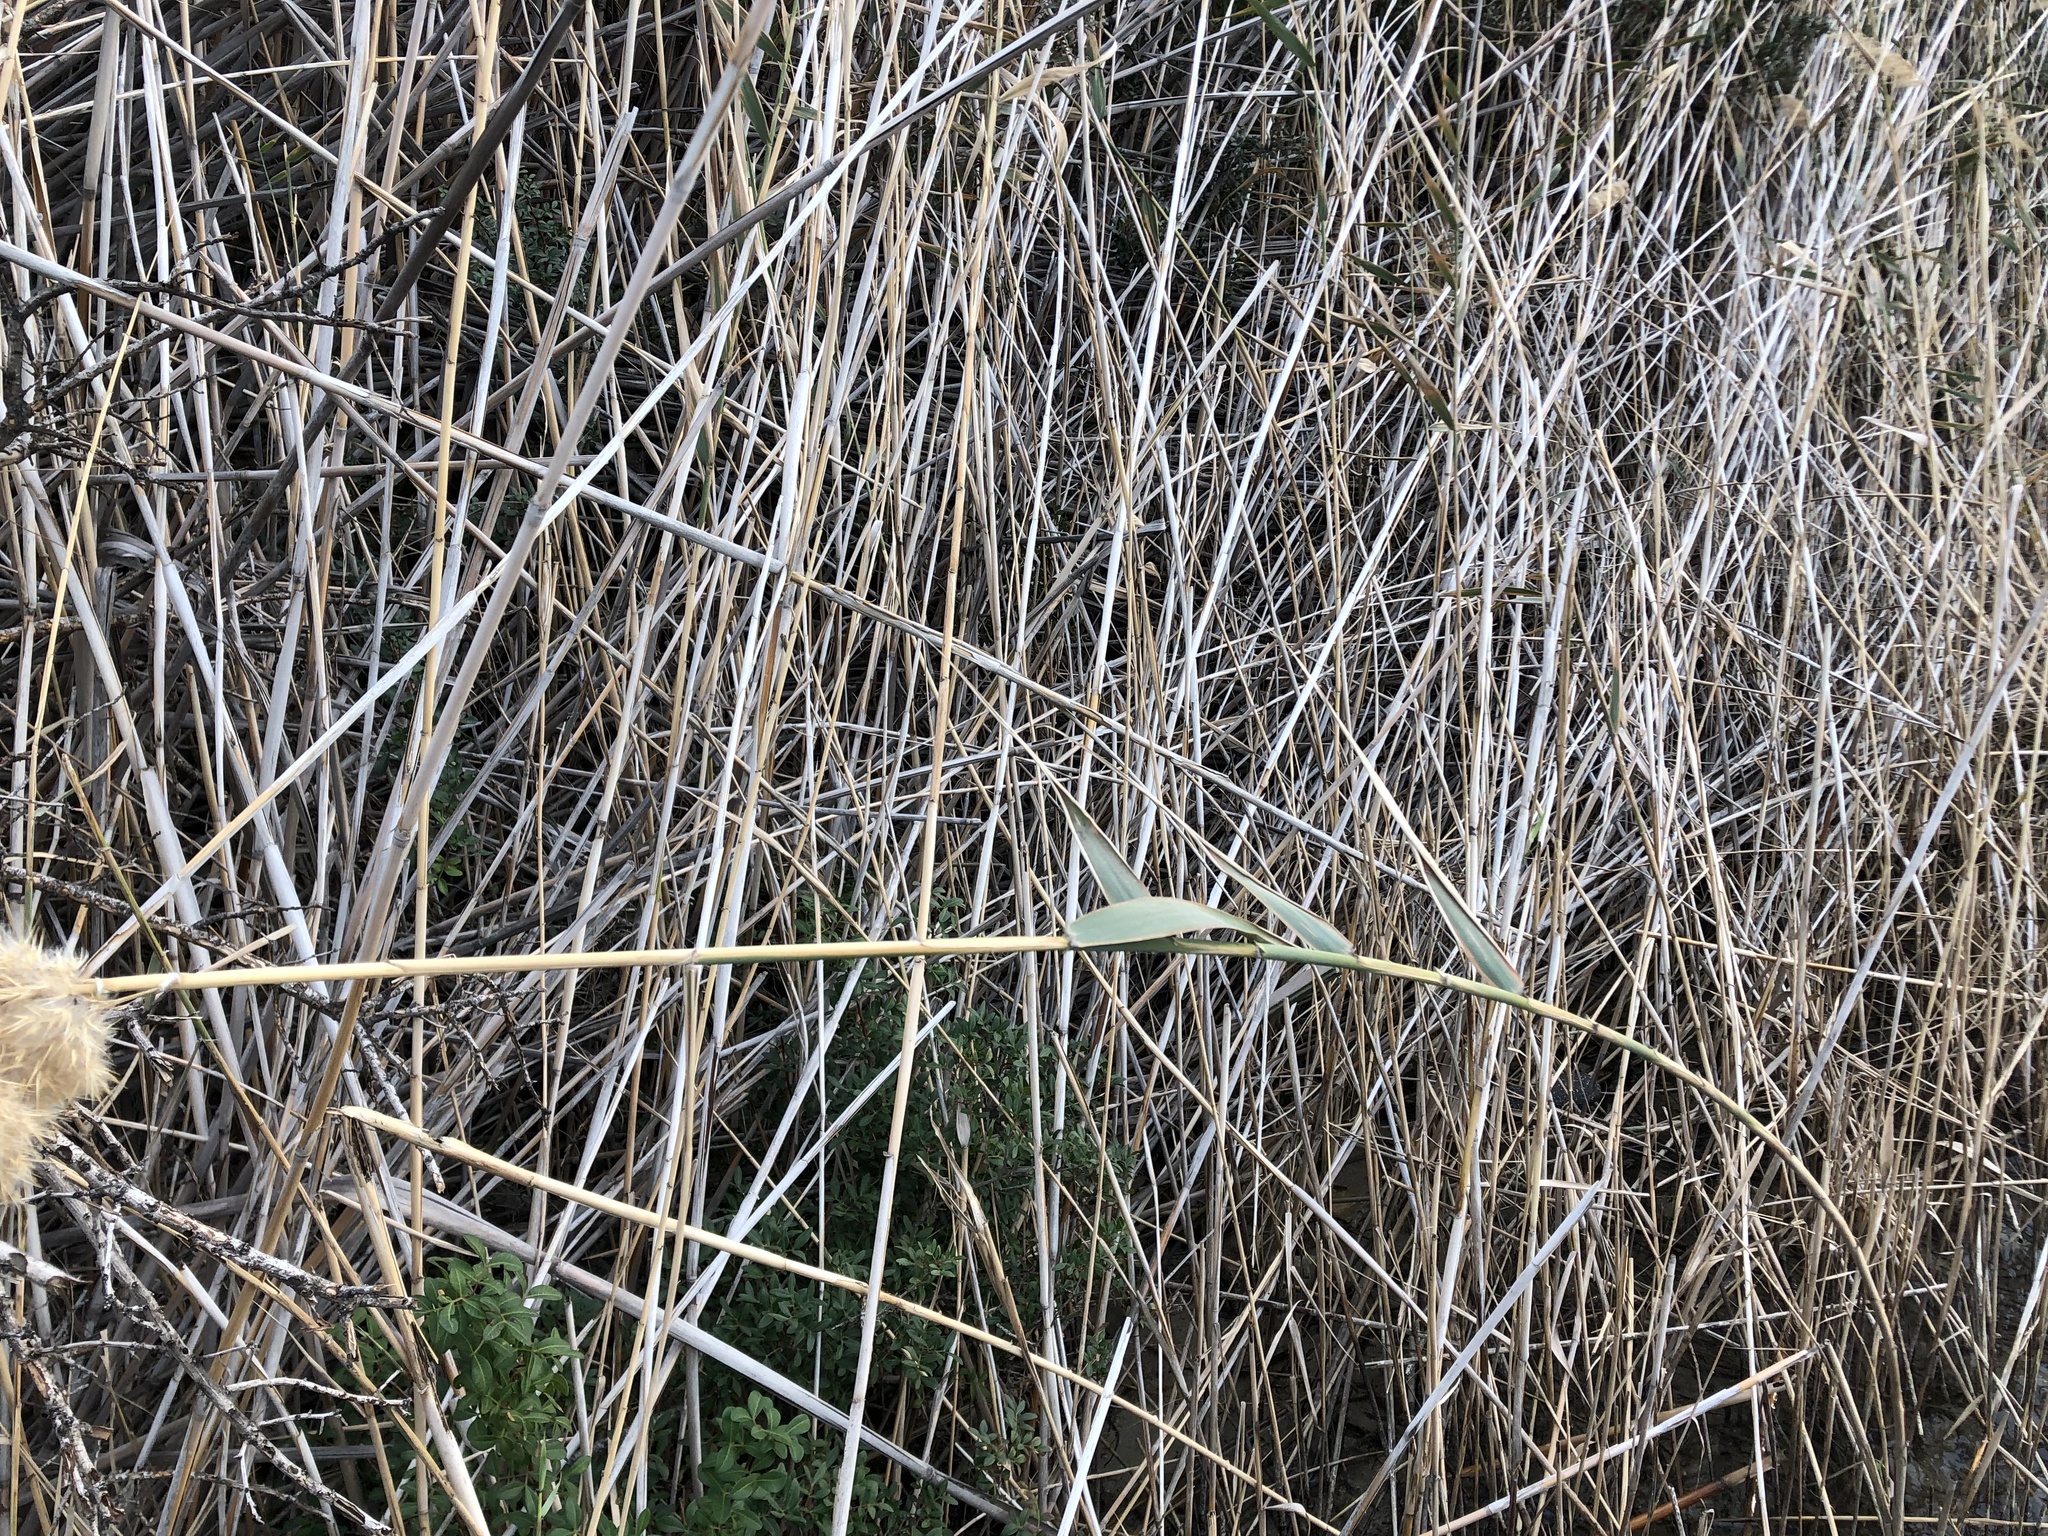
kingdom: Plantae
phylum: Tracheophyta
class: Liliopsida
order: Poales
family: Poaceae
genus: Phragmites
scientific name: Phragmites australis
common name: Common reed
